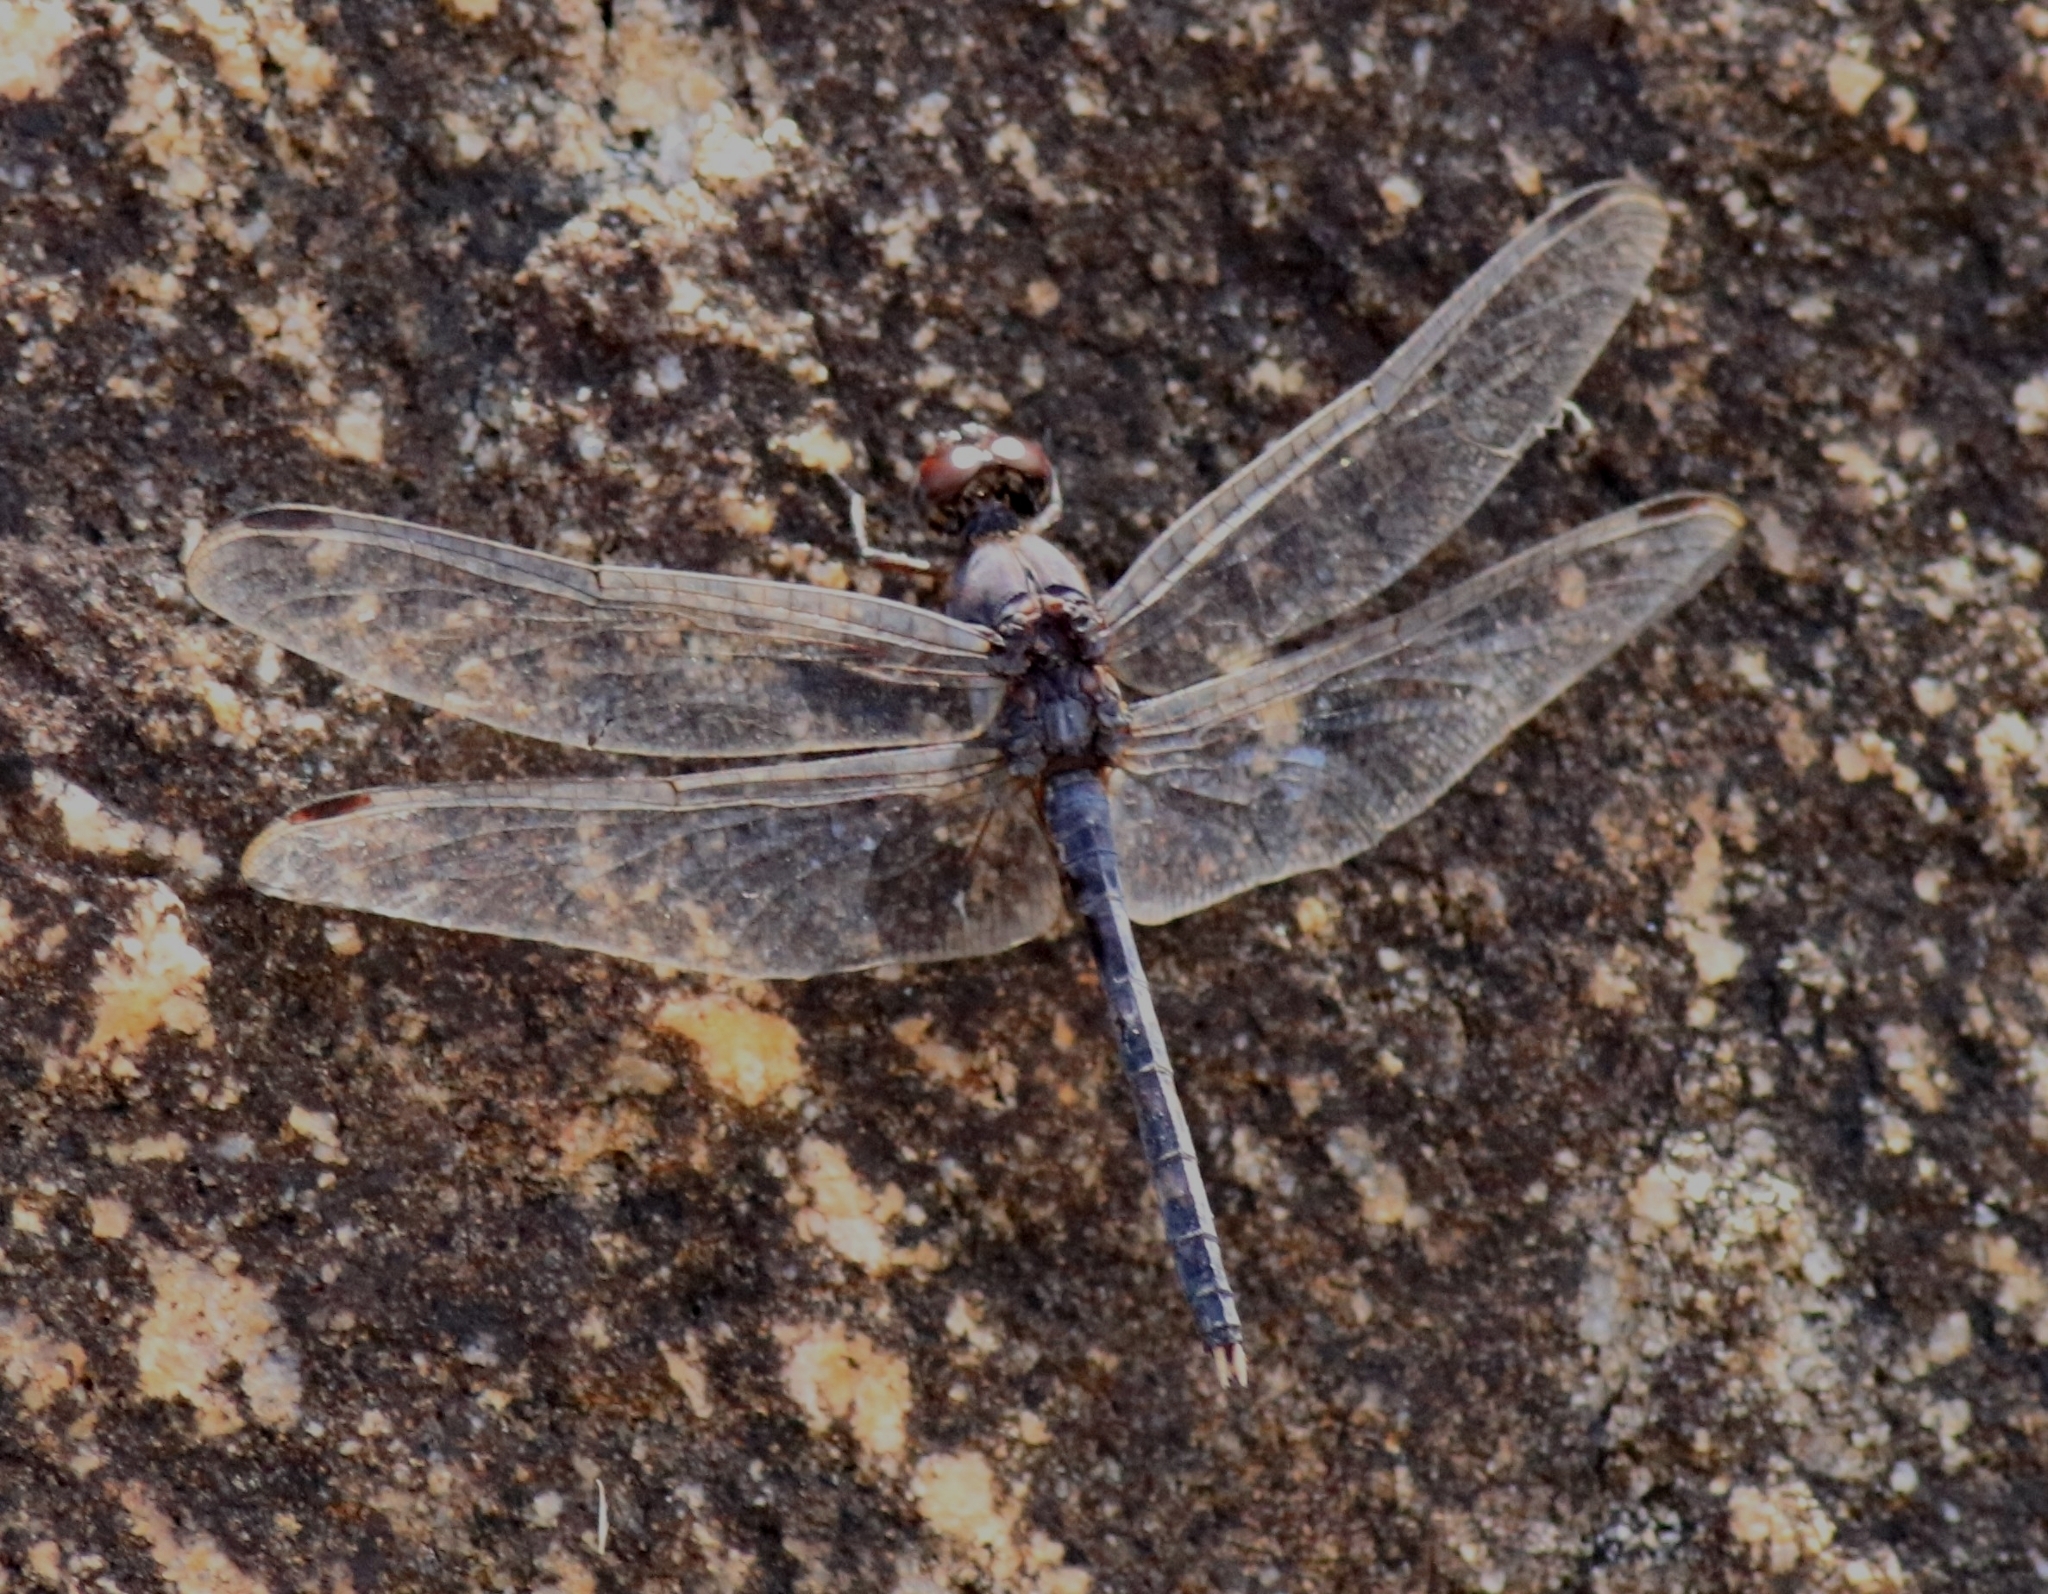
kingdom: Animalia
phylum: Arthropoda
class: Insecta
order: Odonata
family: Libellulidae
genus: Bradinopyga
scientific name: Bradinopyga geminata
